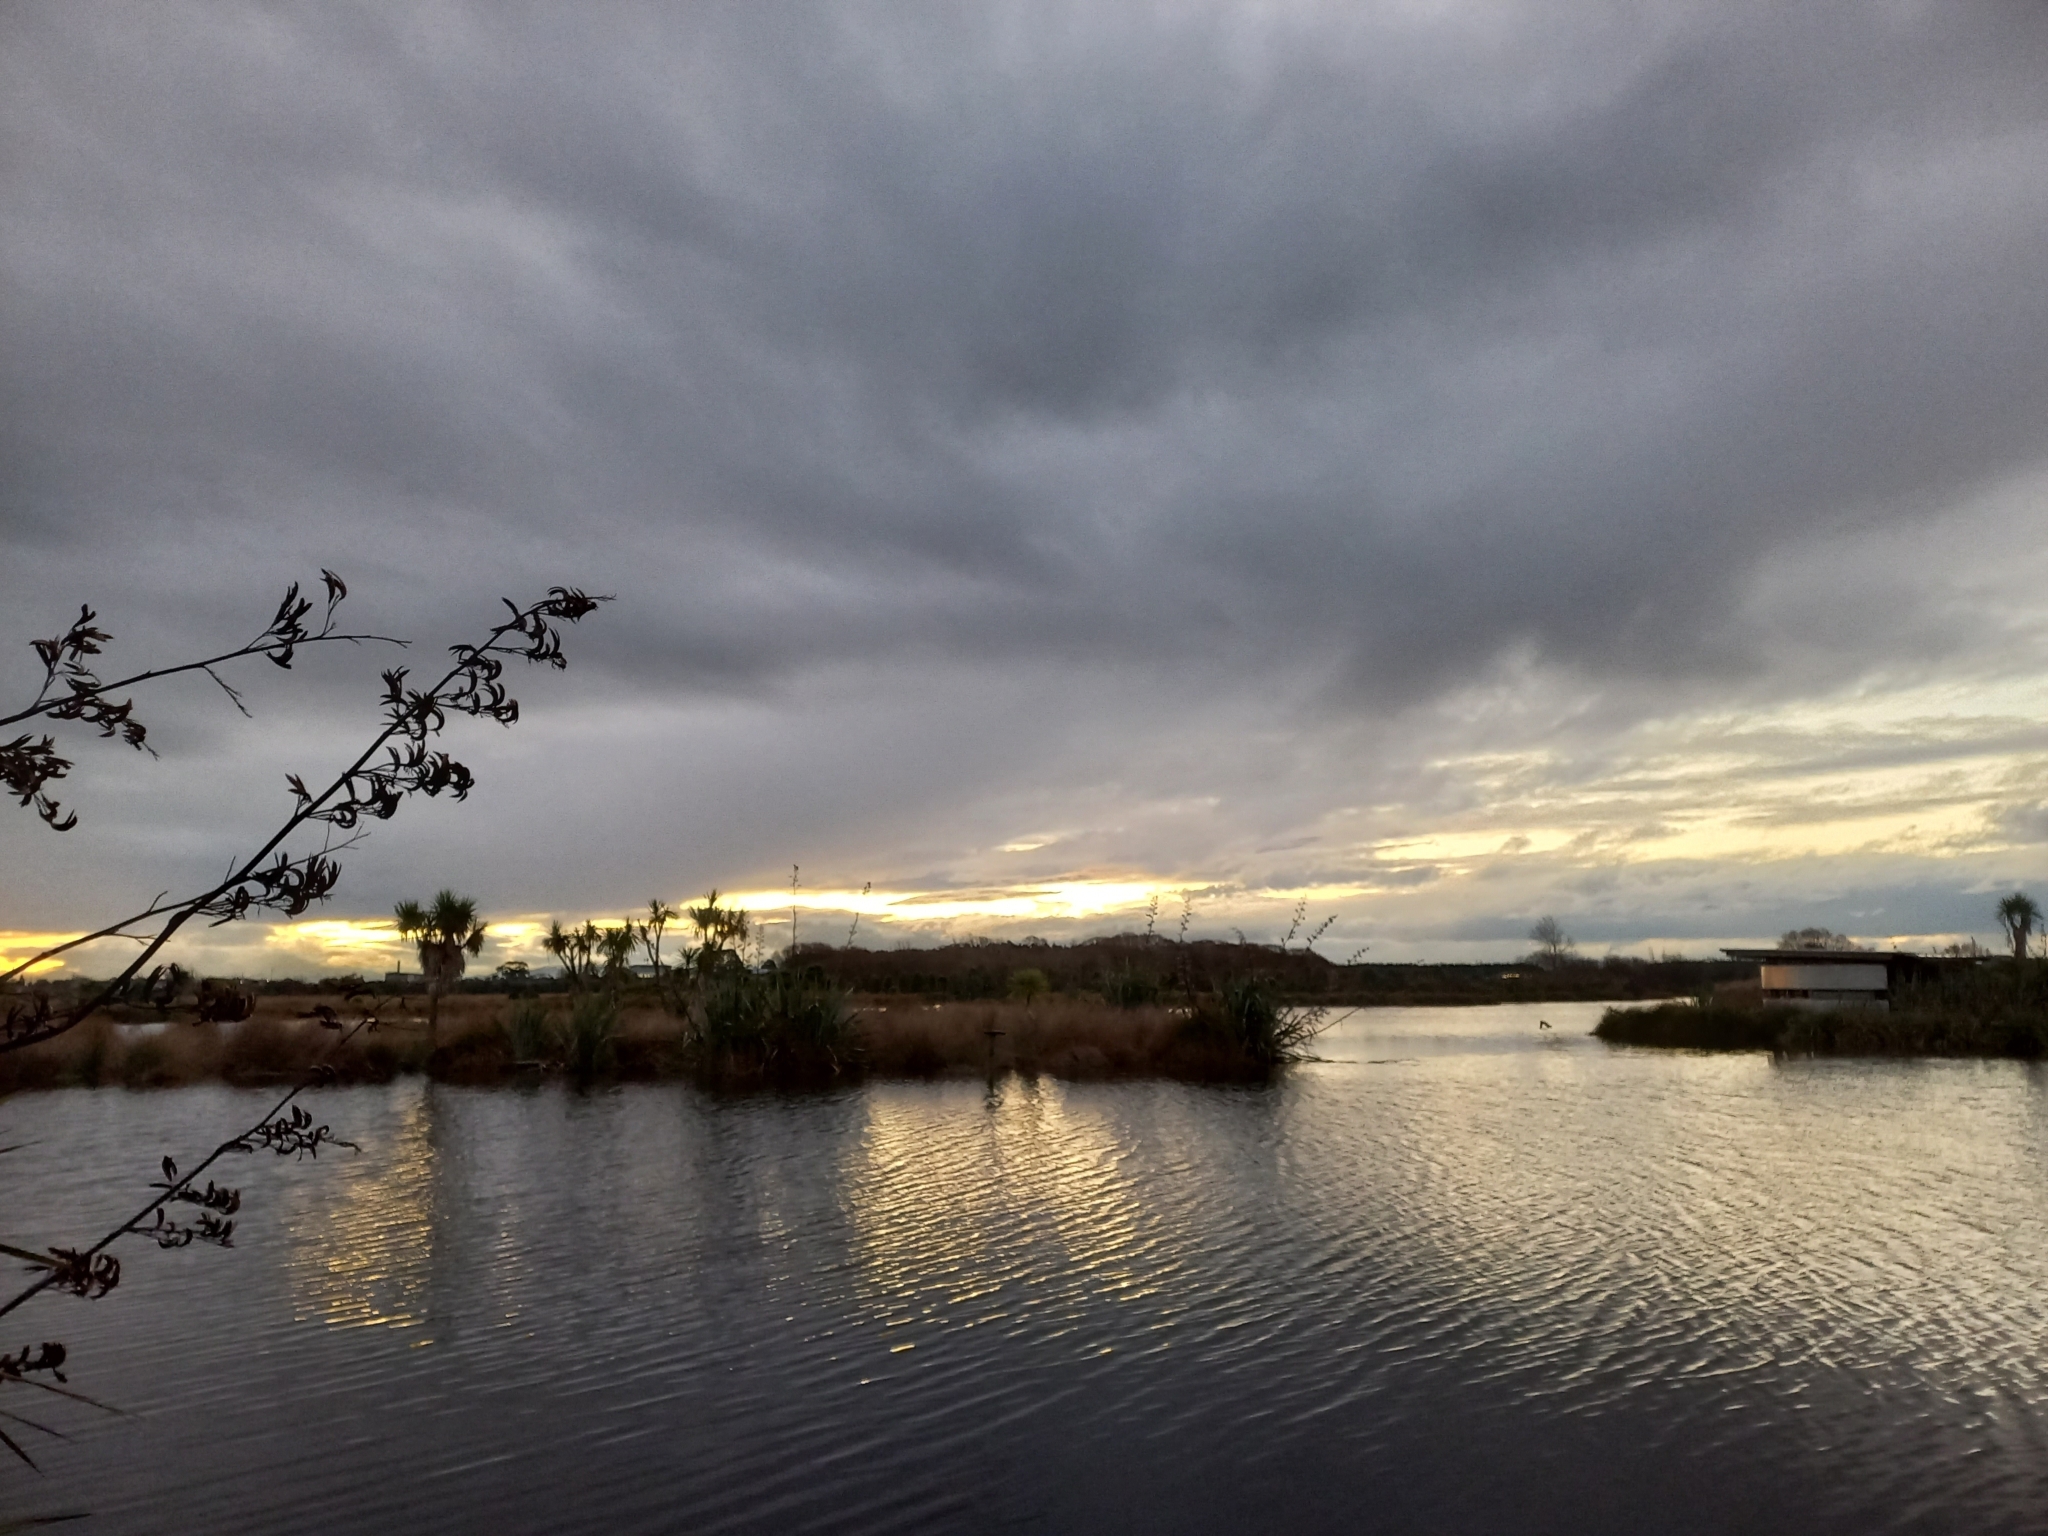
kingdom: Plantae
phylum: Tracheophyta
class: Liliopsida
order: Asparagales
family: Asphodelaceae
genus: Phormium
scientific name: Phormium tenax
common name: New zealand flax
